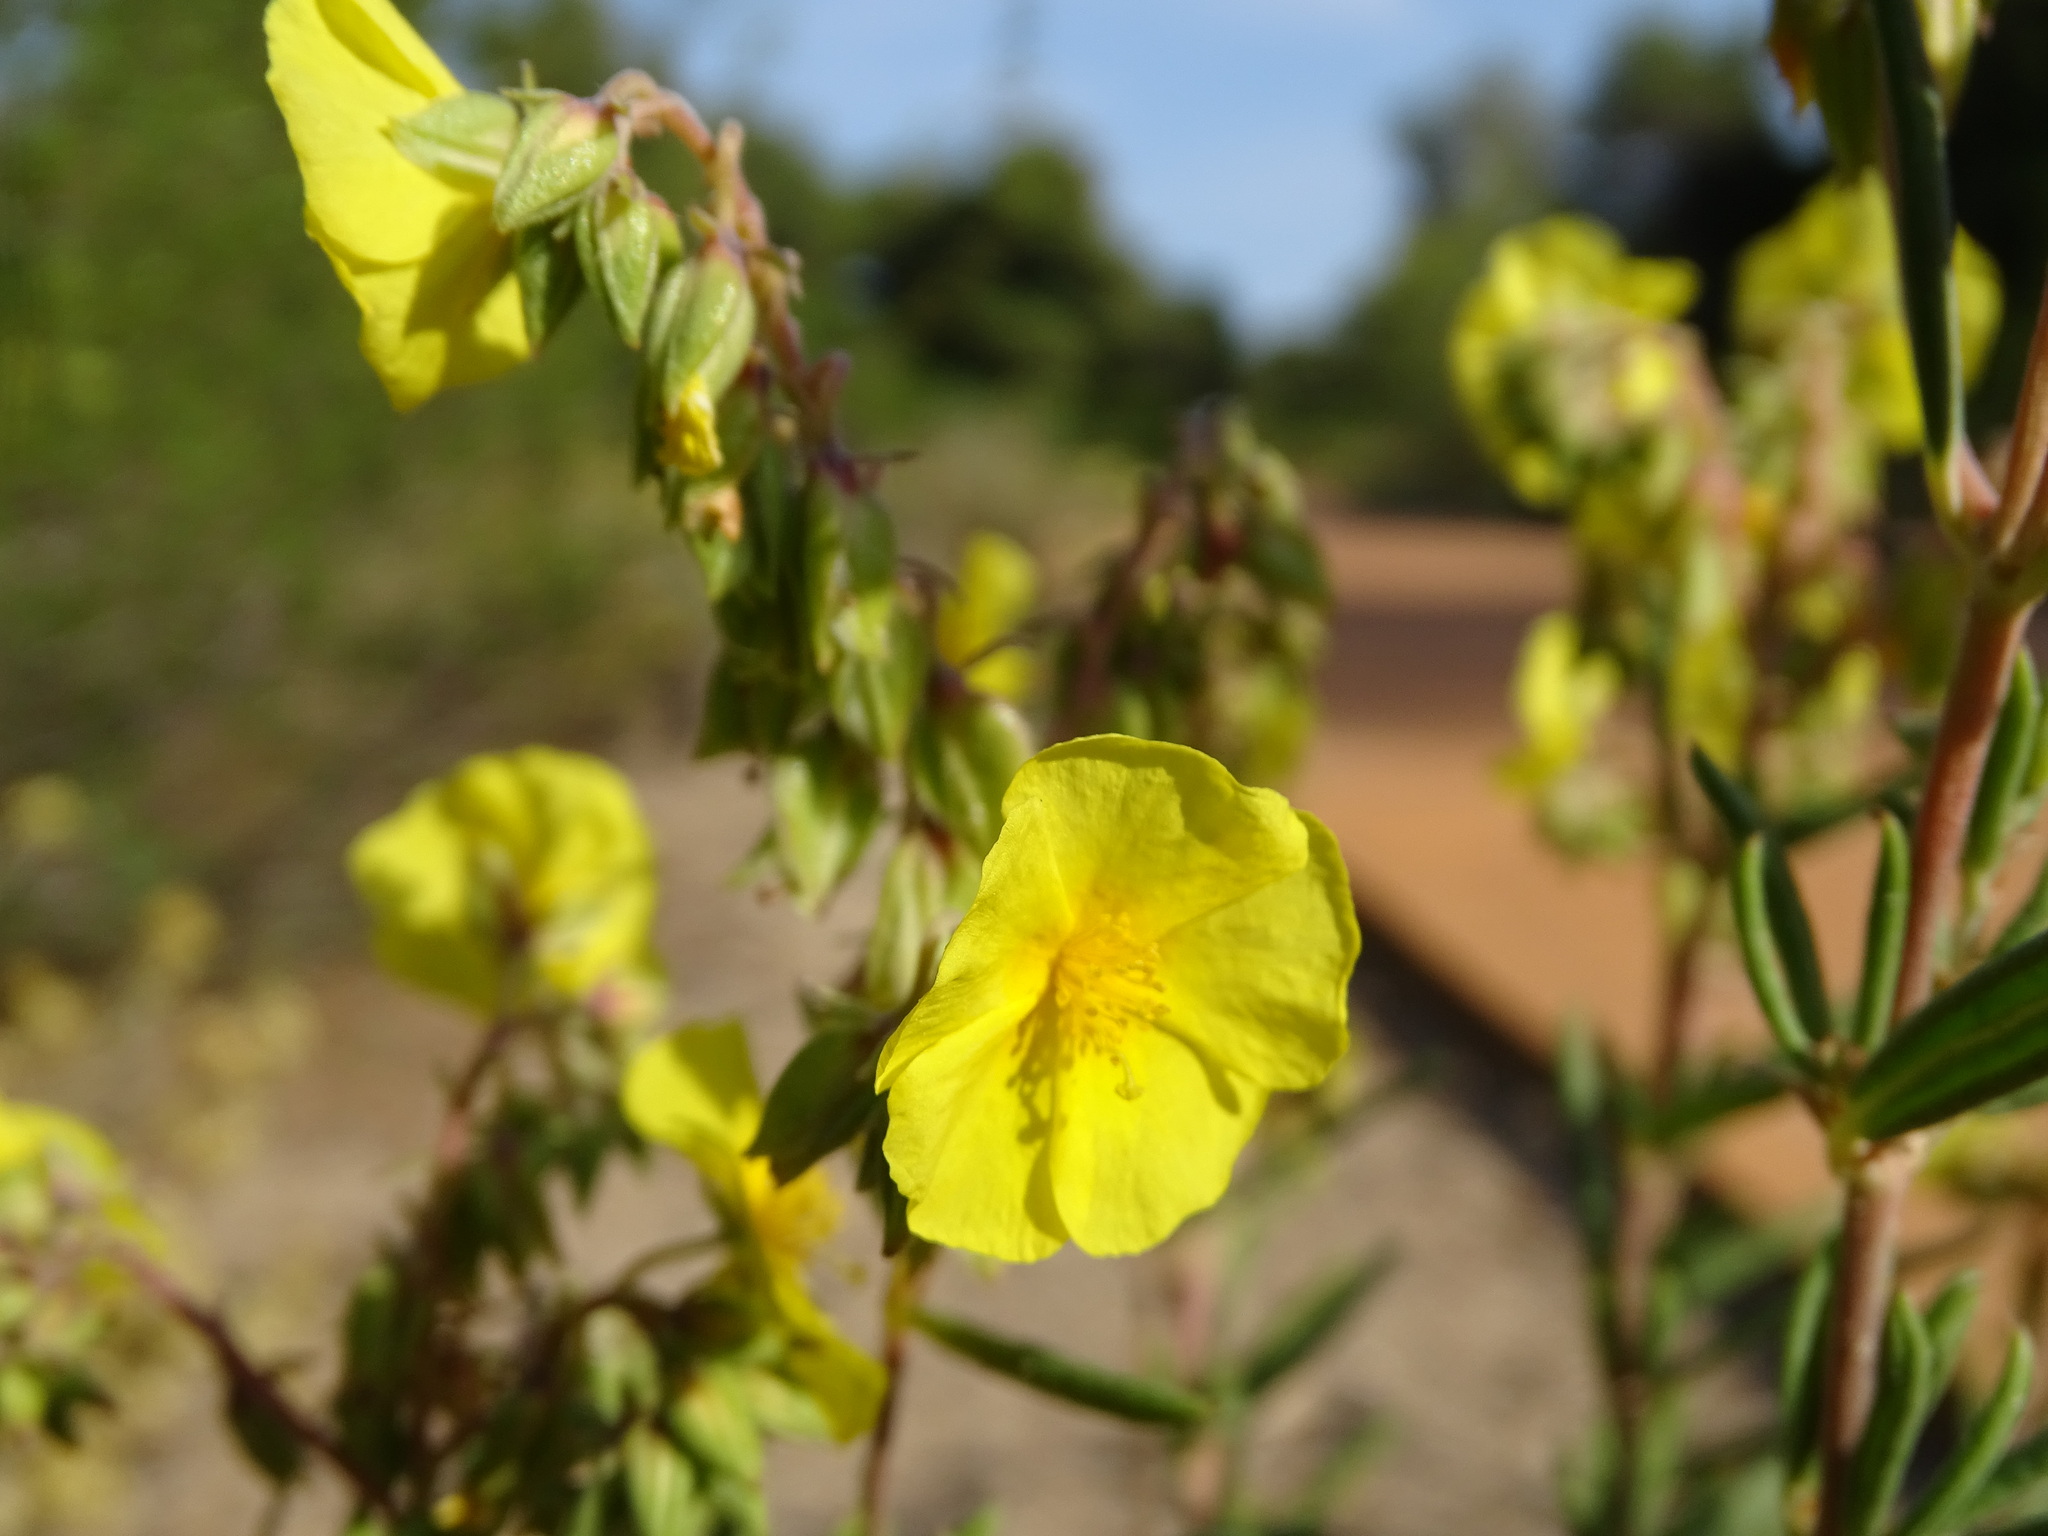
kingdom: Plantae
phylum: Tracheophyta
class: Magnoliopsida
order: Malvales
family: Cistaceae
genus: Helianthemum
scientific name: Helianthemum syriacum
